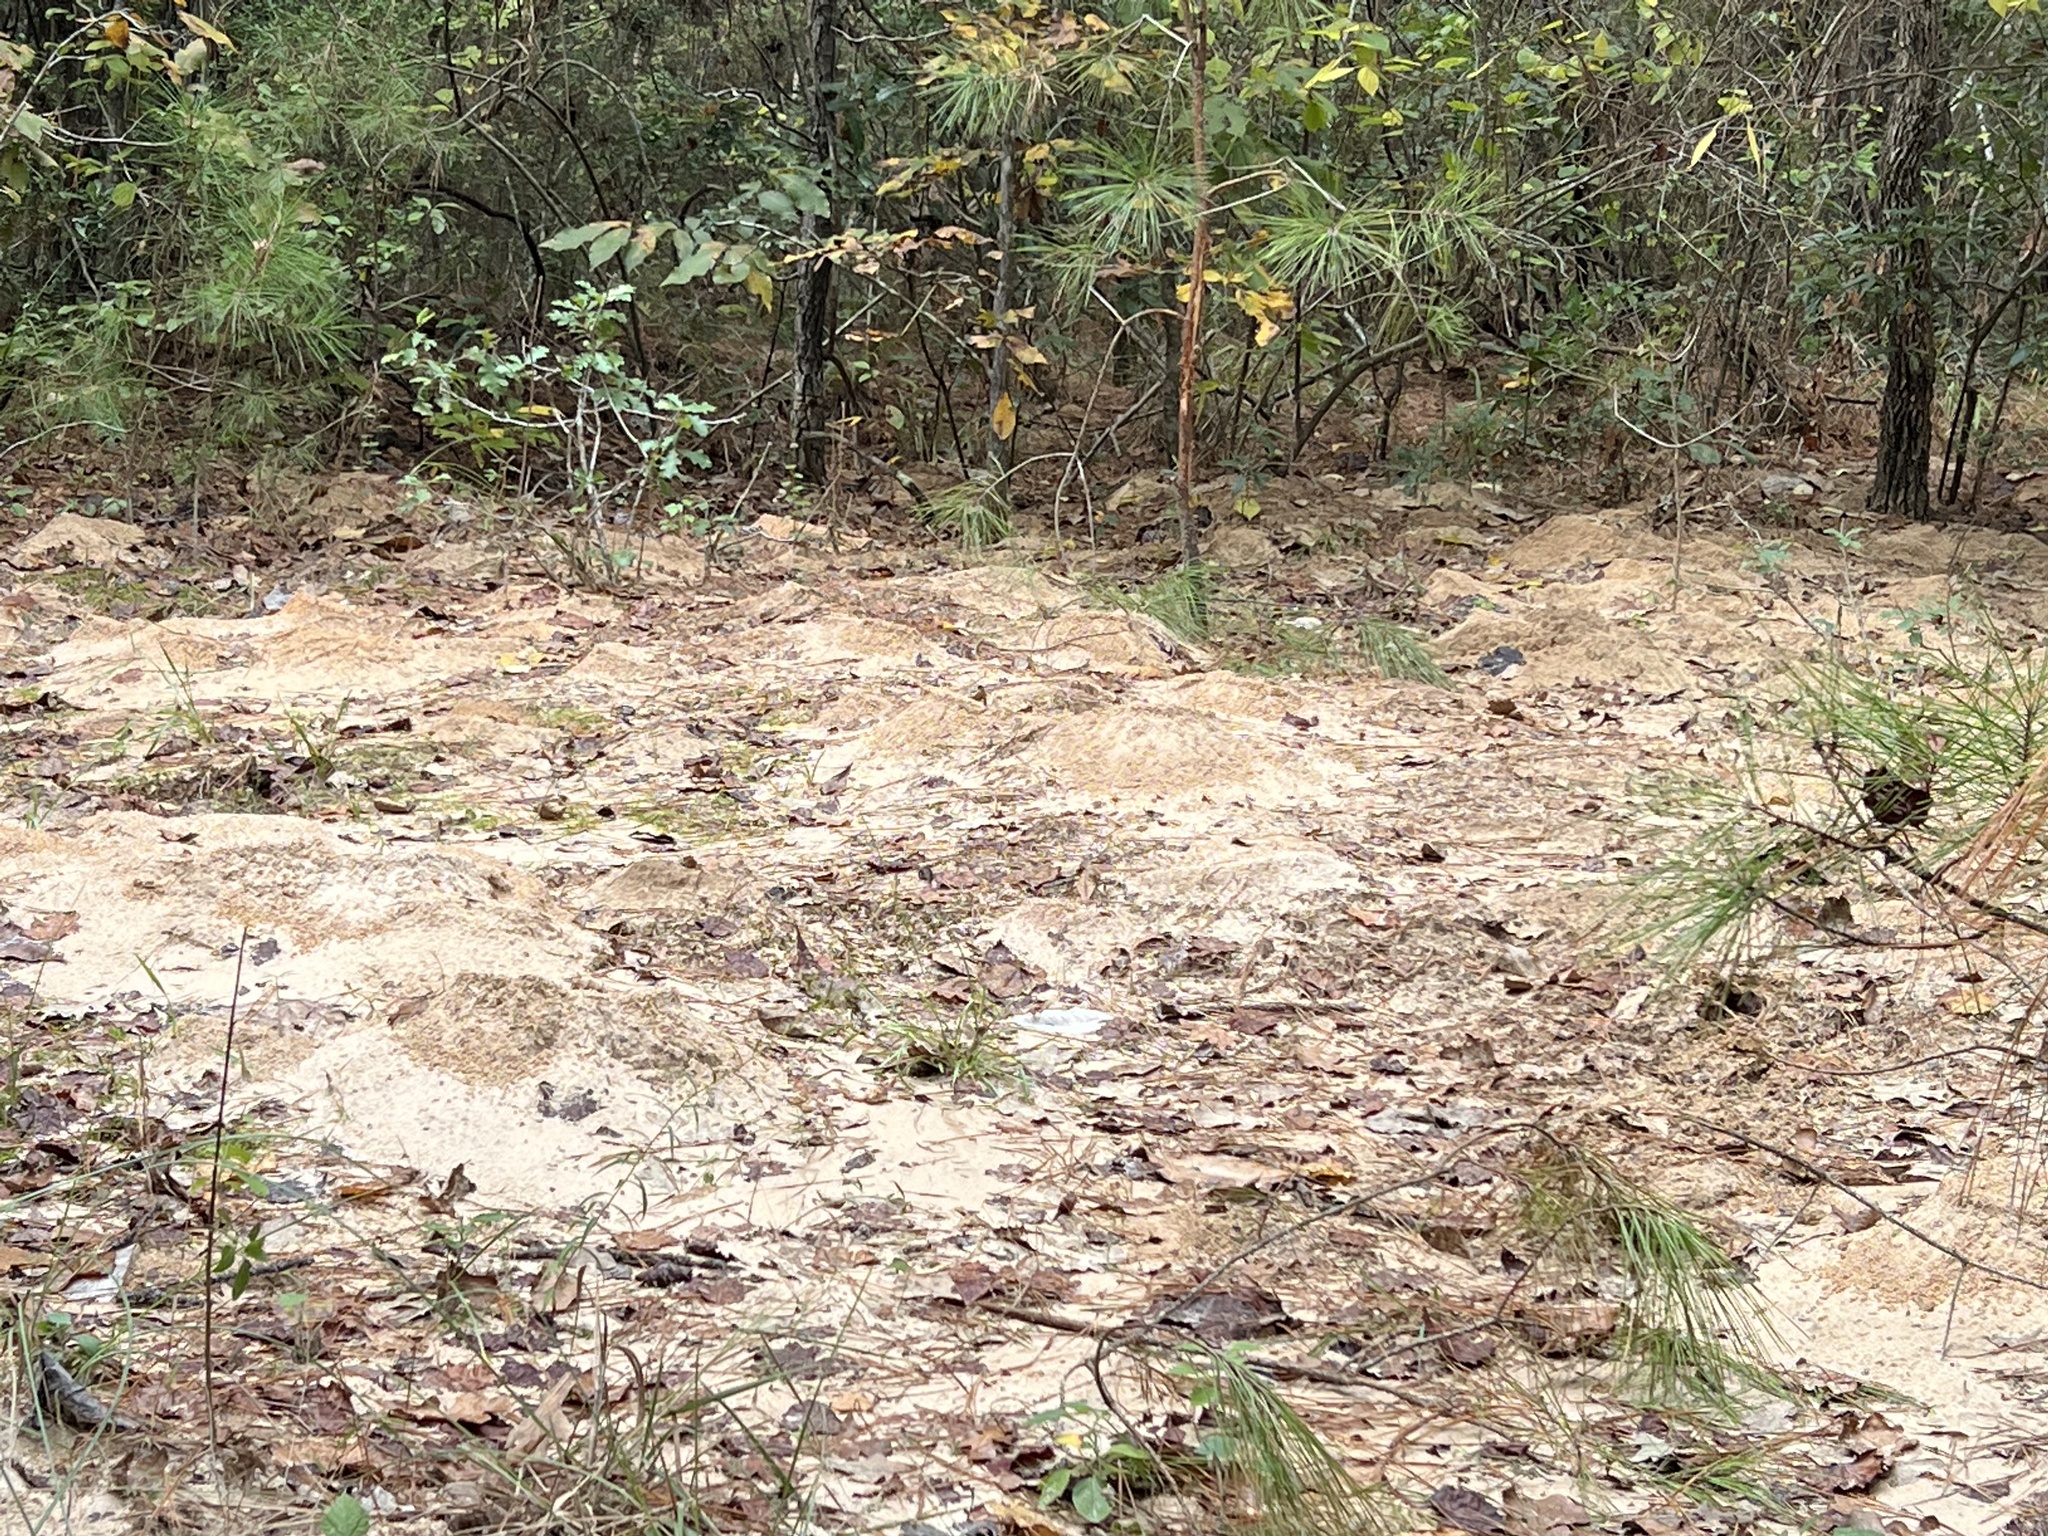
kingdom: Animalia
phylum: Arthropoda
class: Insecta
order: Hymenoptera
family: Formicidae
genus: Atta
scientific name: Atta texana
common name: Texas leafcutting ant
